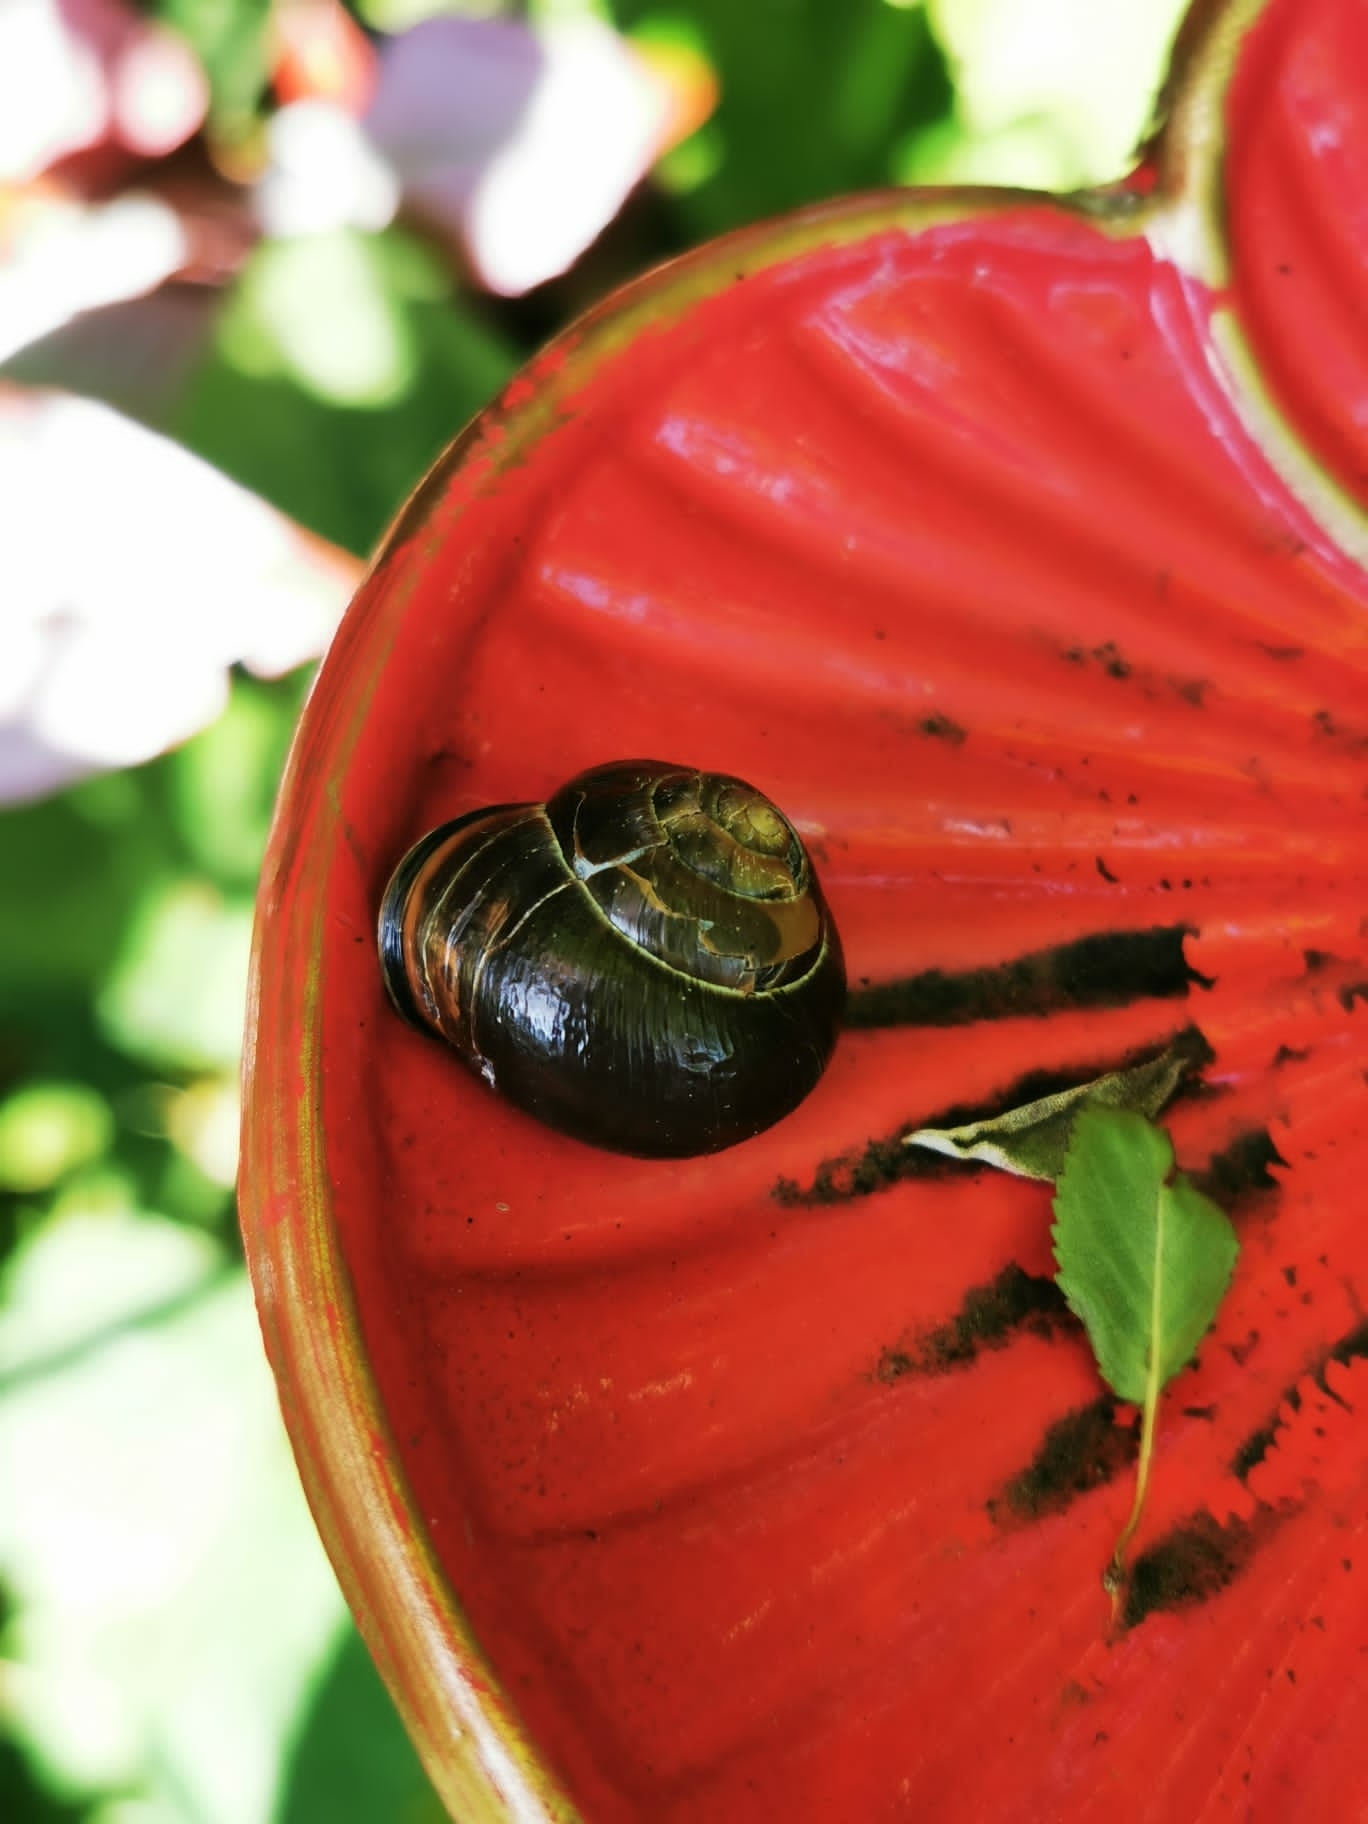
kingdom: Animalia
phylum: Mollusca
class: Gastropoda
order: Stylommatophora
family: Helicidae
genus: Cepaea
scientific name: Cepaea nemoralis
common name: Grovesnail
